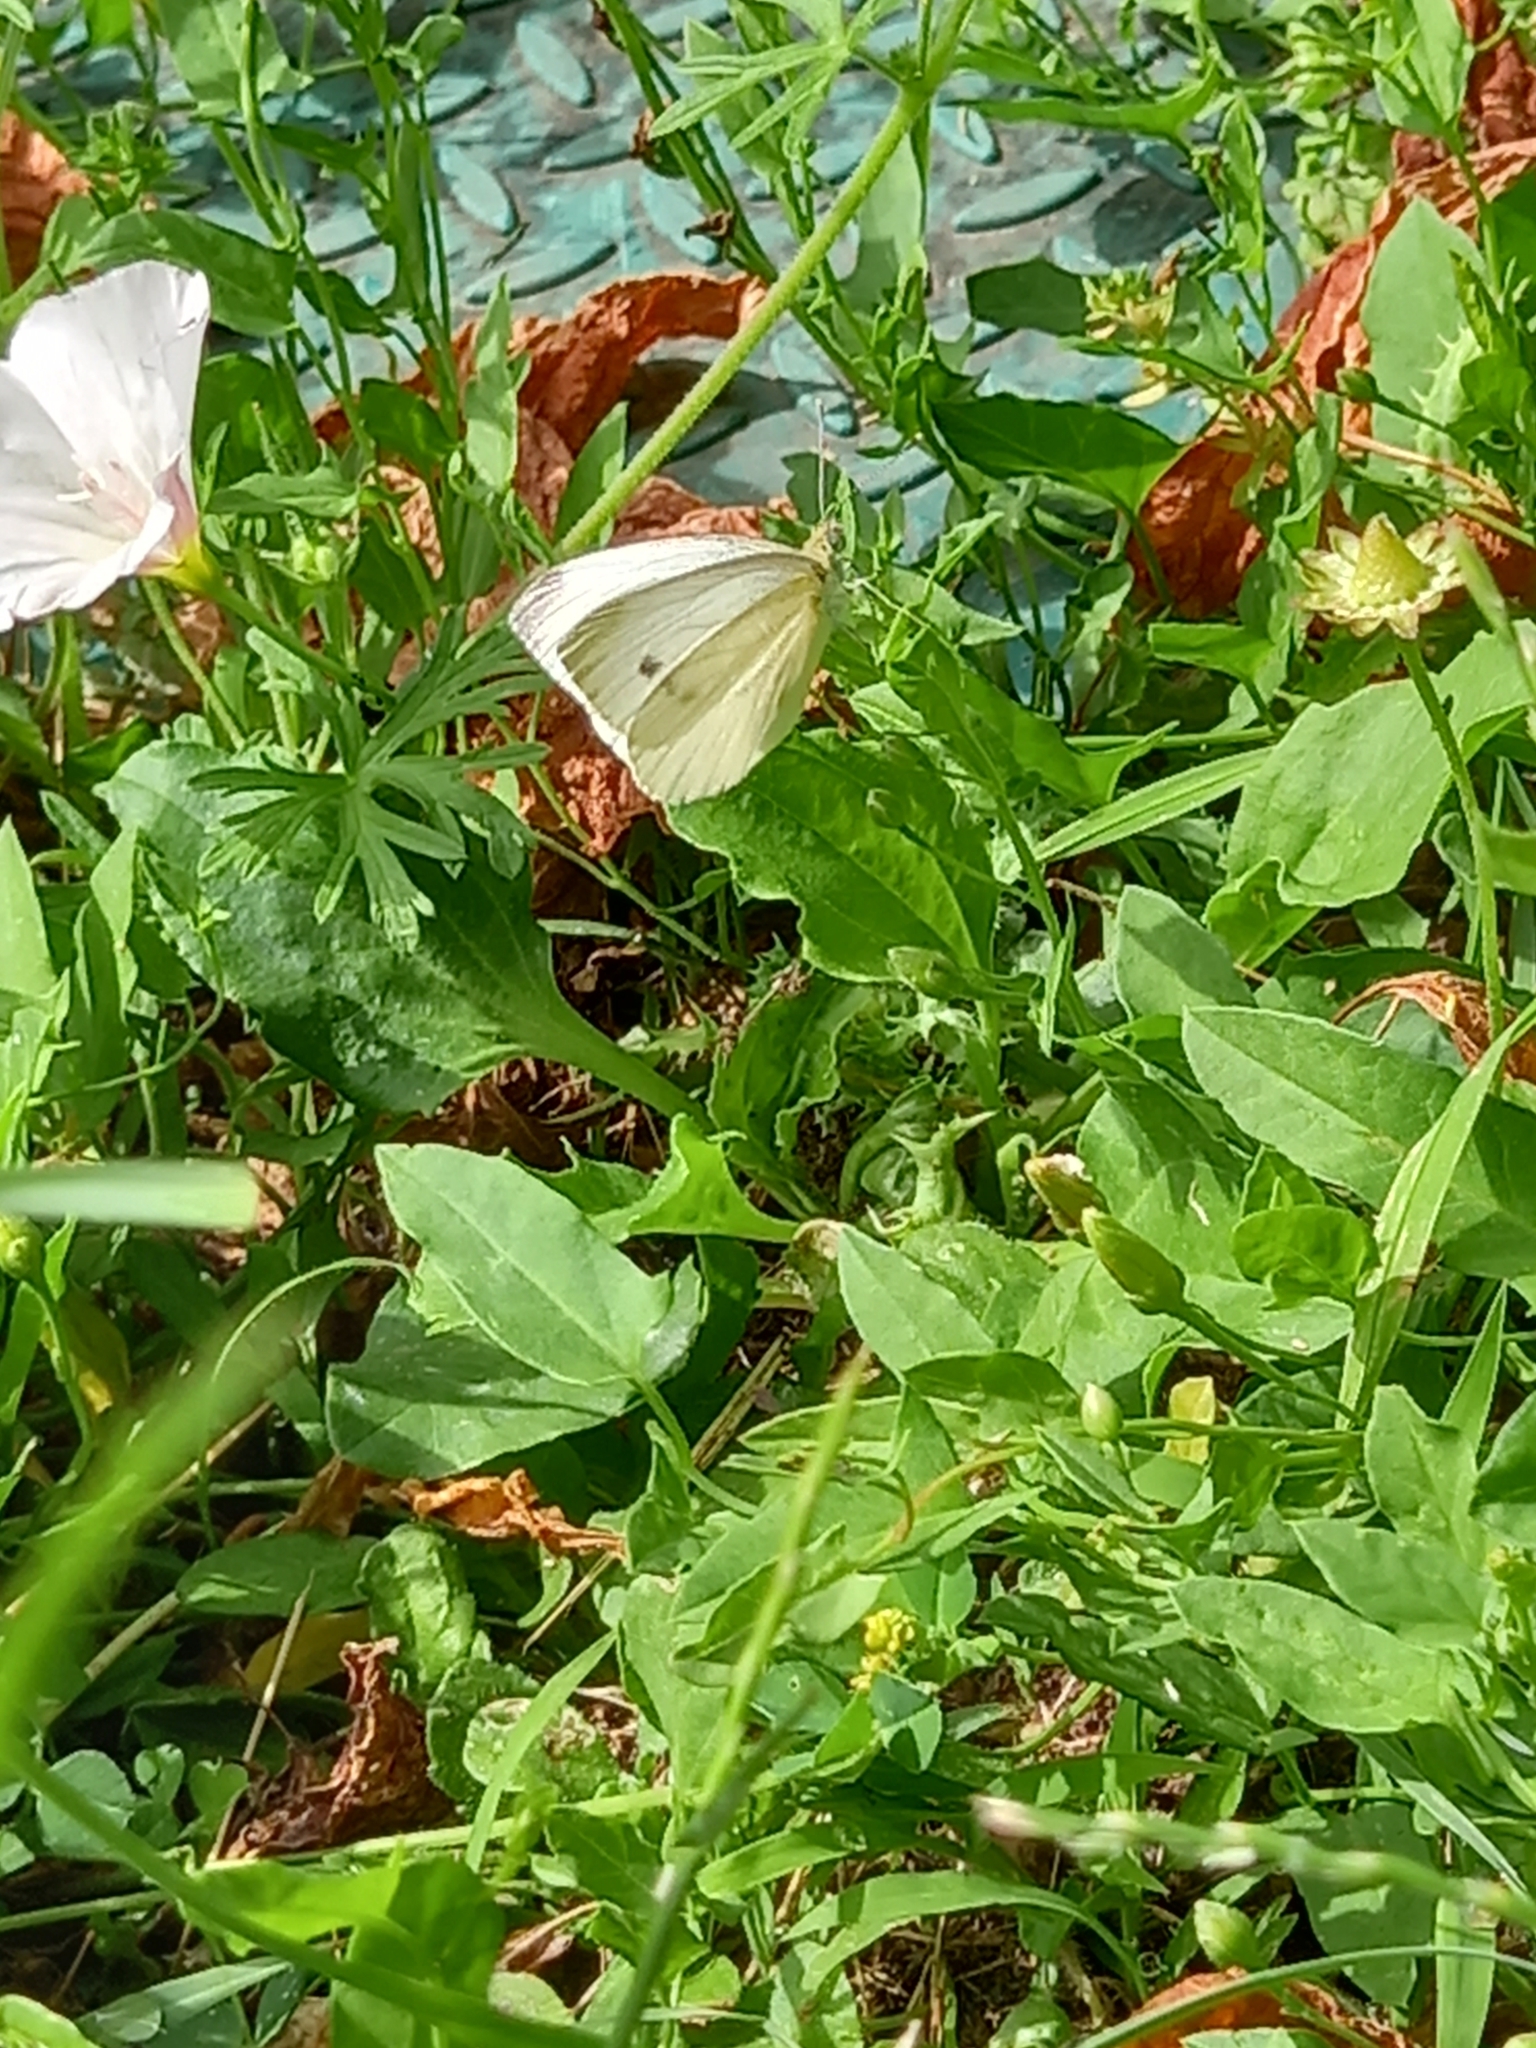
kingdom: Animalia
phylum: Arthropoda
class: Insecta
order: Lepidoptera
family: Pieridae
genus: Pieris
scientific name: Pieris napi
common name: Green-veined white
